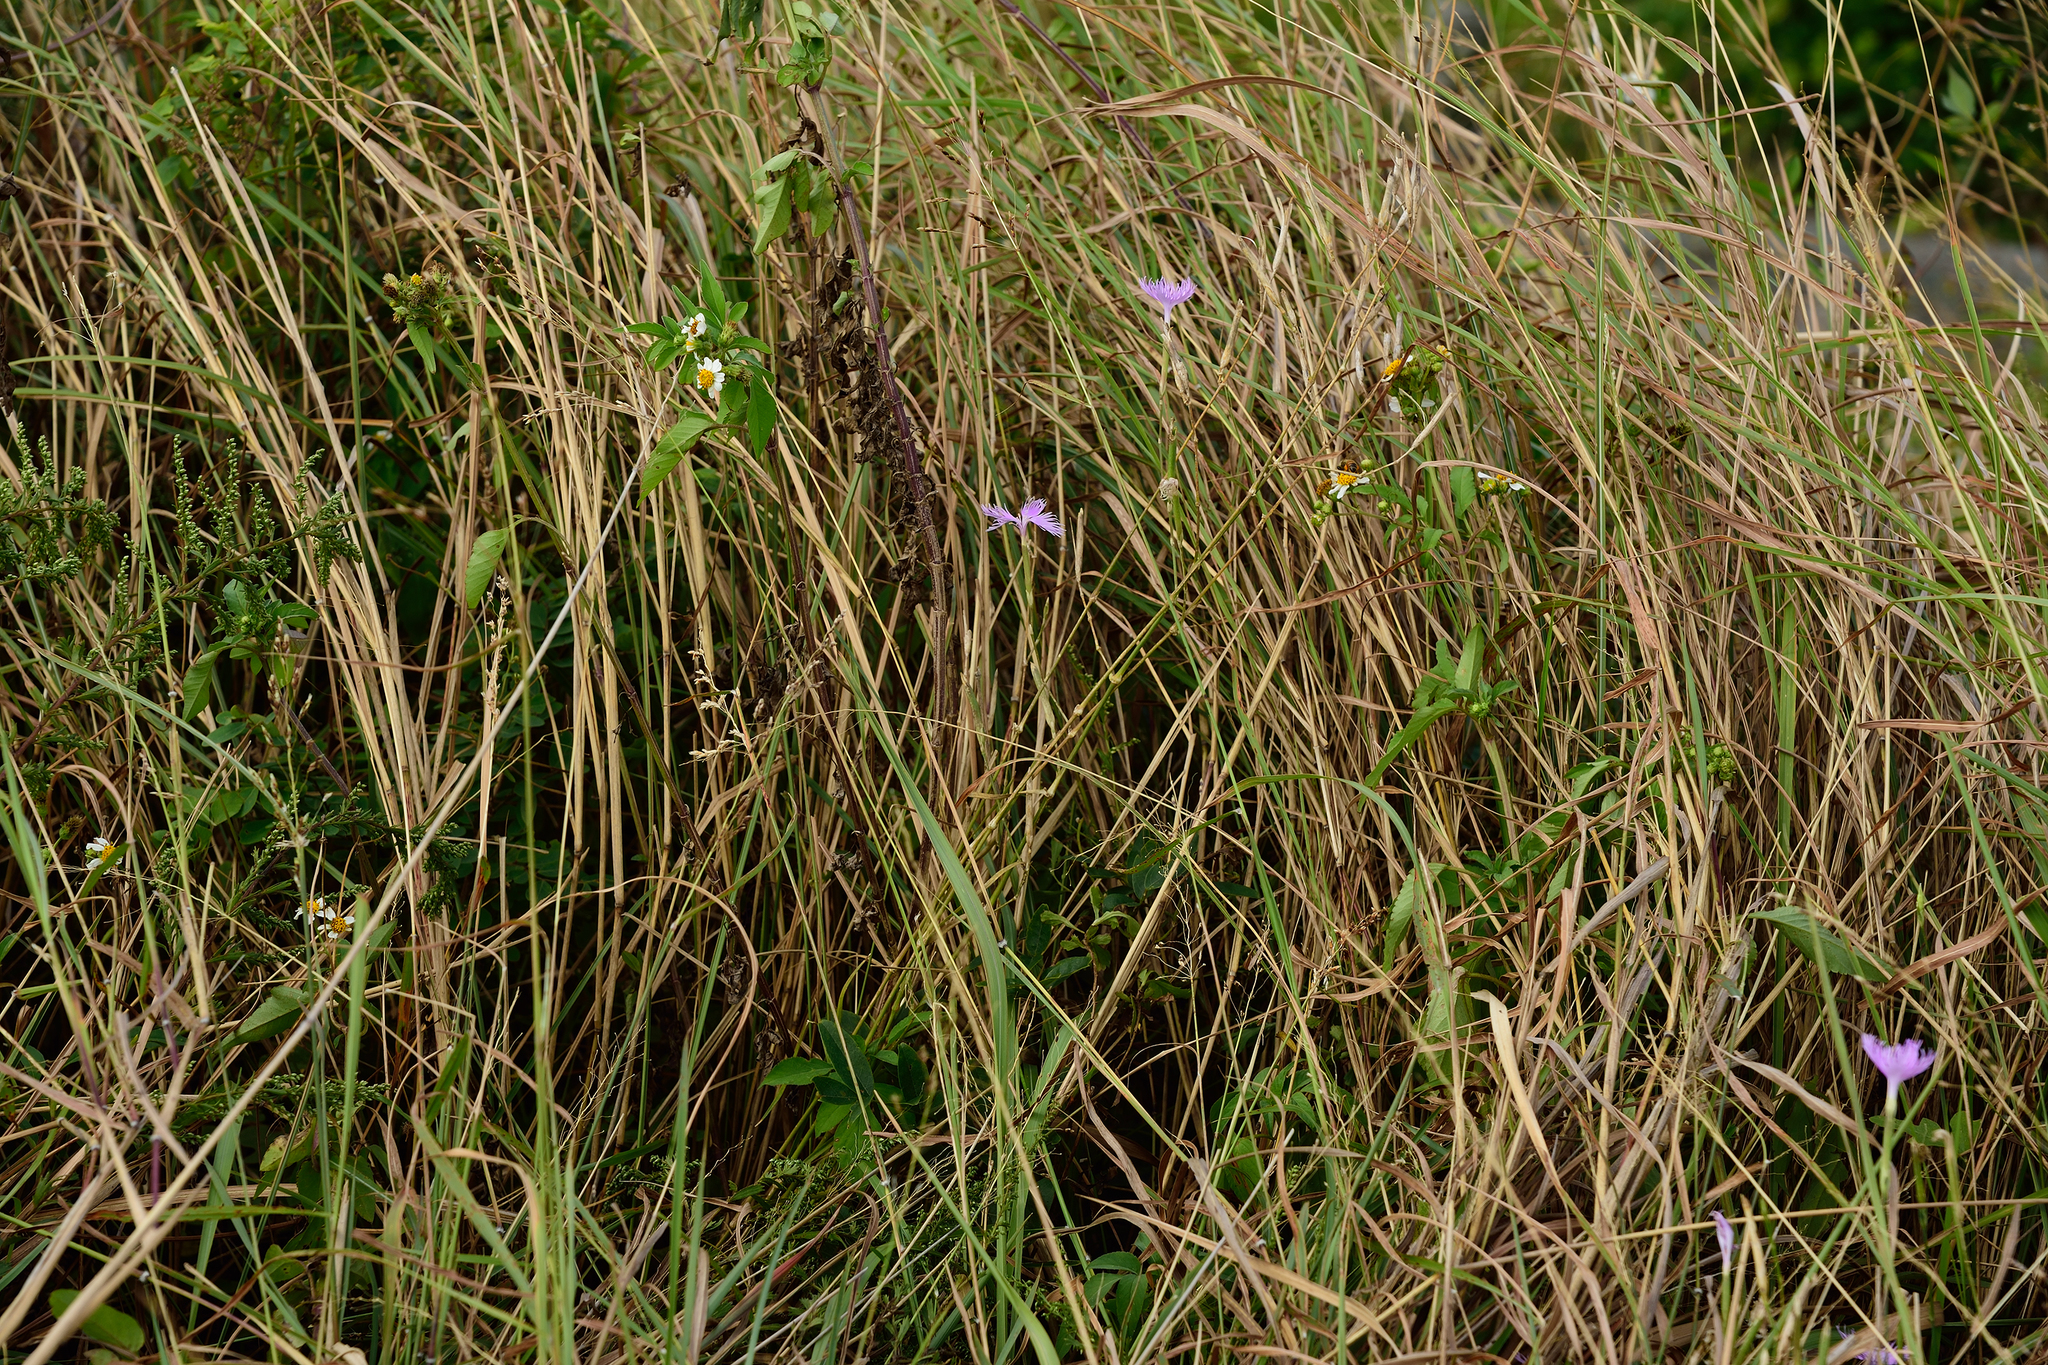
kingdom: Plantae
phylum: Tracheophyta
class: Magnoliopsida
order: Caryophyllales
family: Caryophyllaceae
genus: Dianthus
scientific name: Dianthus longicalyx
